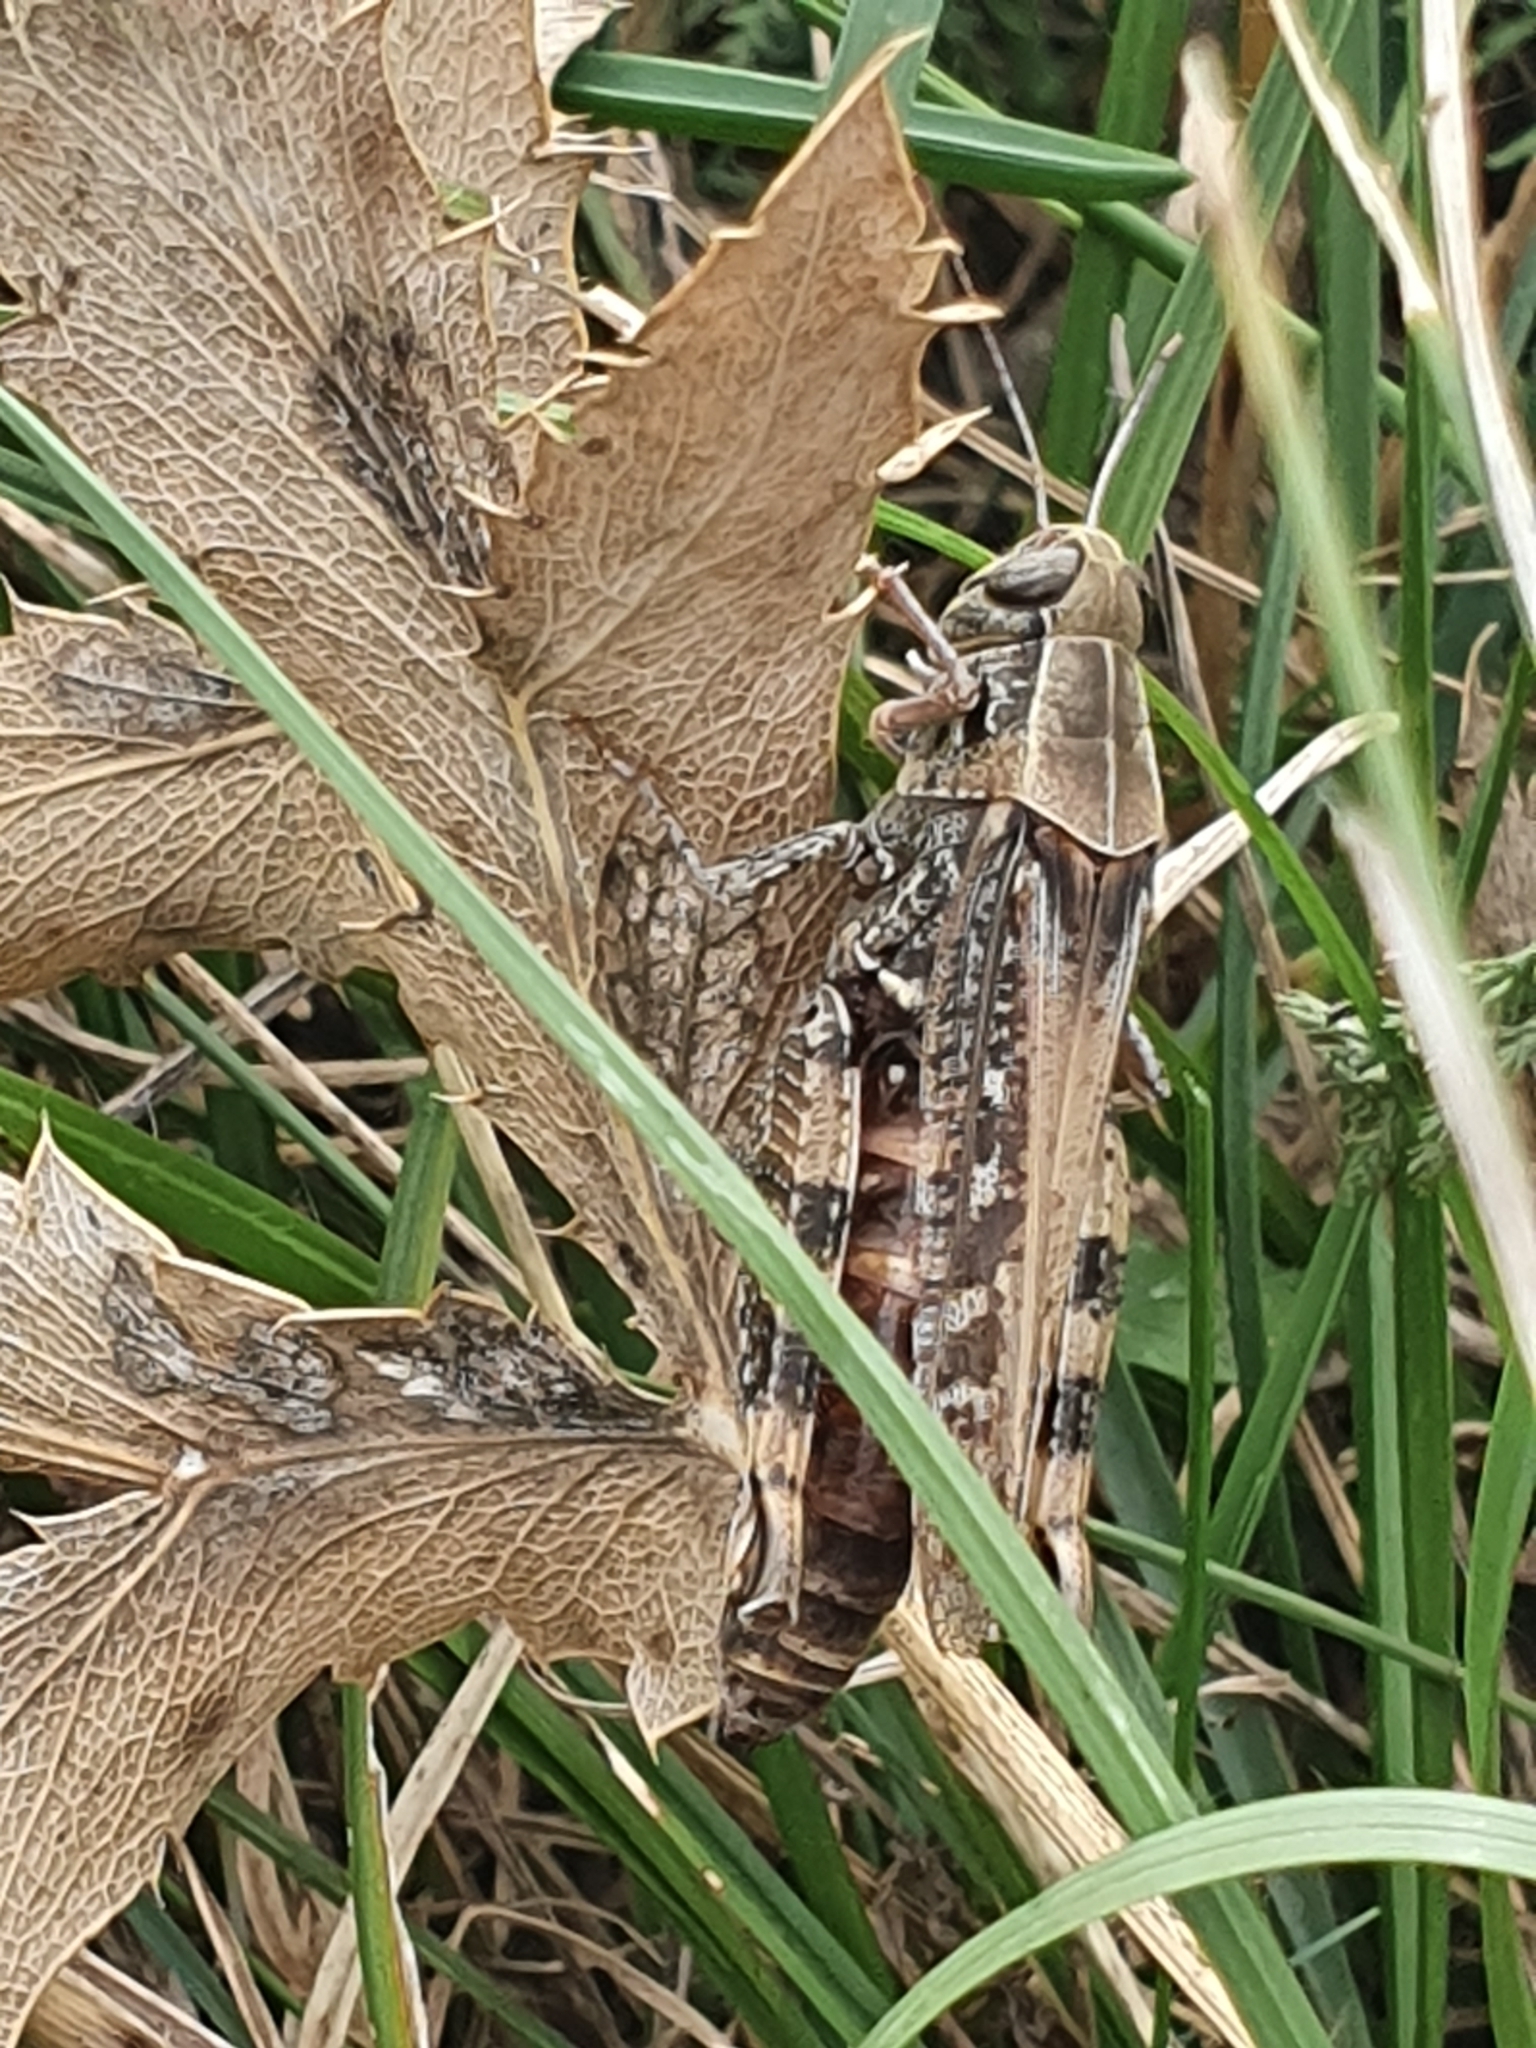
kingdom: Animalia
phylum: Arthropoda
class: Insecta
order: Orthoptera
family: Acrididae
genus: Calliptamus
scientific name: Calliptamus italicus
